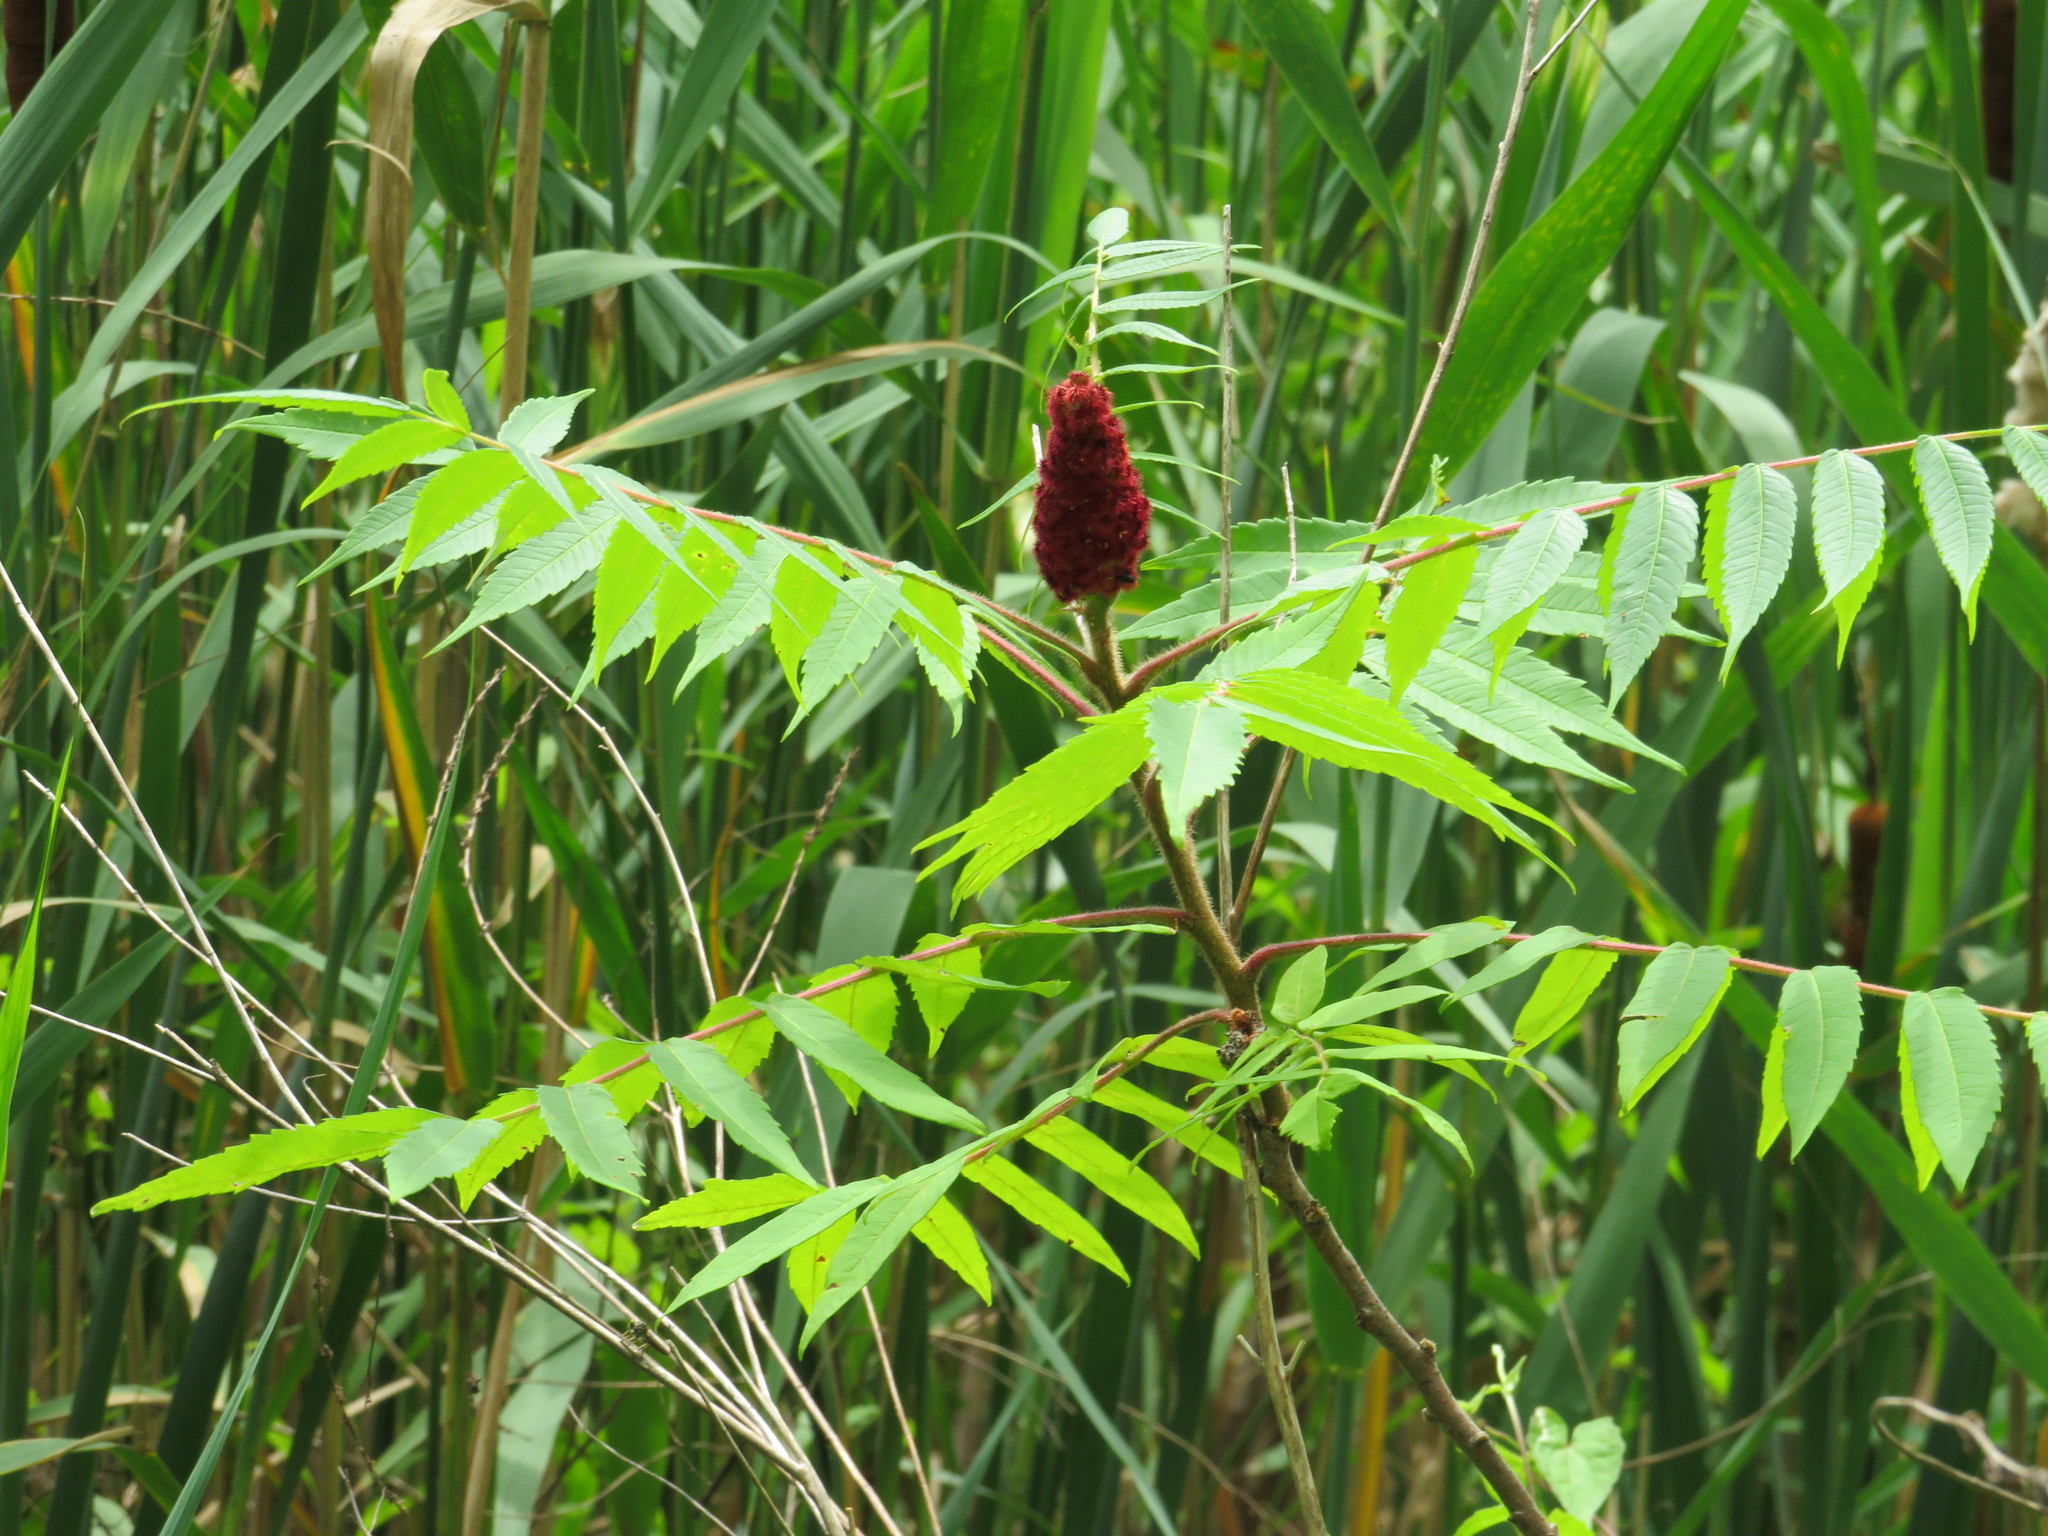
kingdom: Plantae
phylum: Tracheophyta
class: Magnoliopsida
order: Sapindales
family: Anacardiaceae
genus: Rhus
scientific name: Rhus typhina
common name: Staghorn sumac
